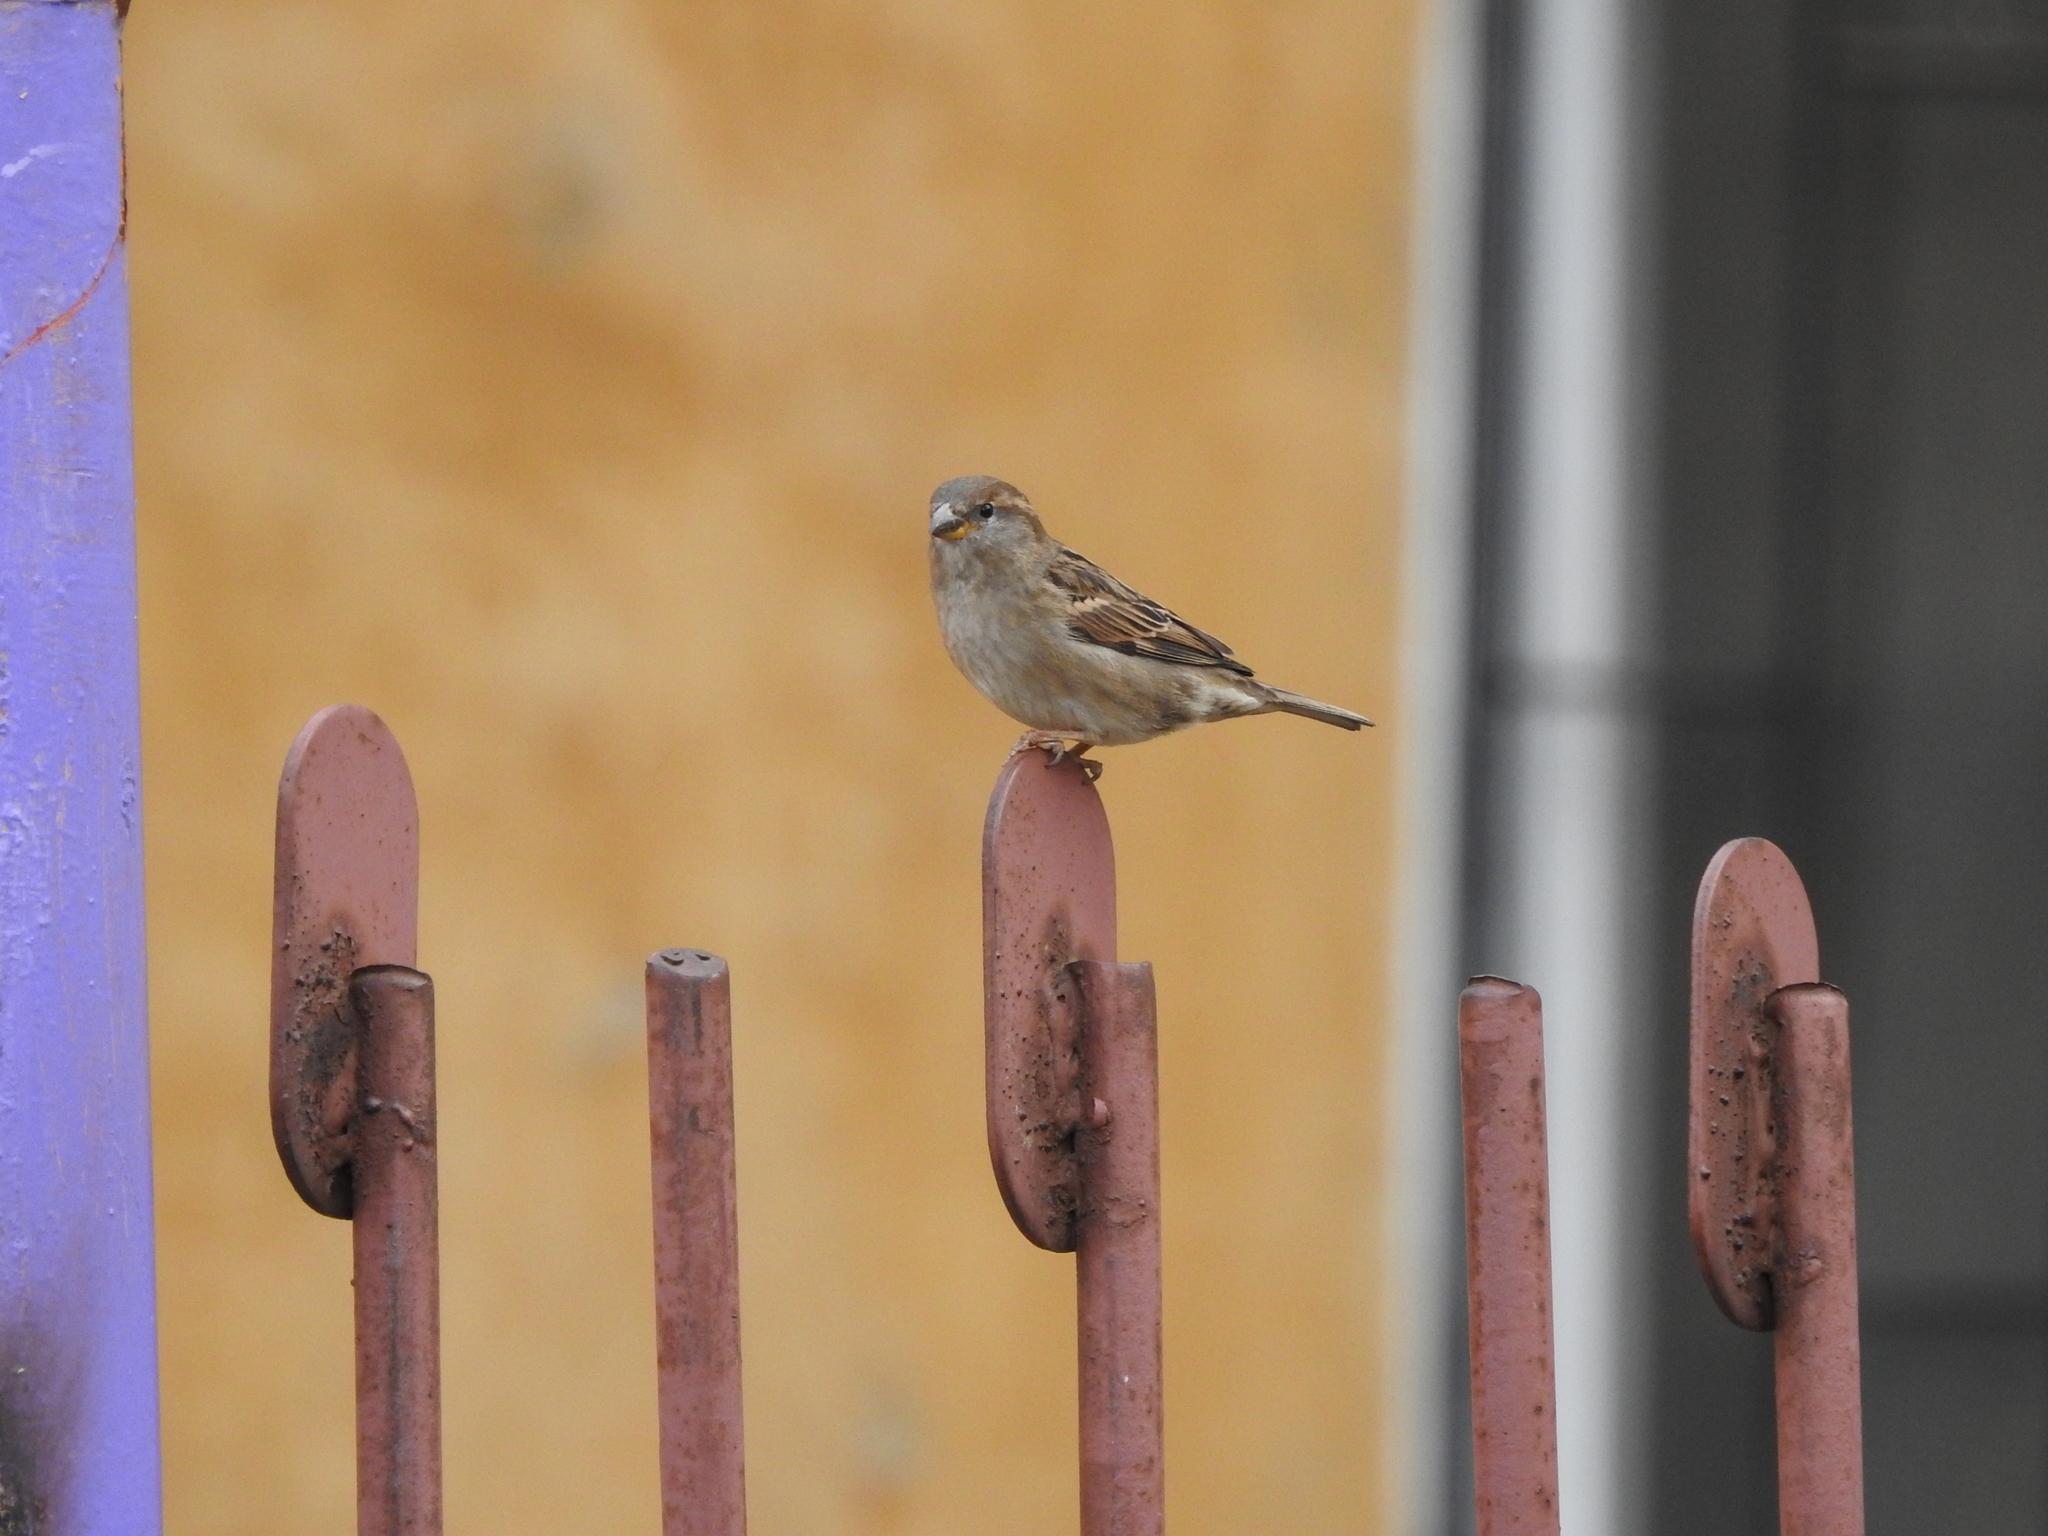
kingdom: Animalia
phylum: Chordata
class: Aves
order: Passeriformes
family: Passeridae
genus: Passer
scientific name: Passer domesticus
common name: House sparrow
